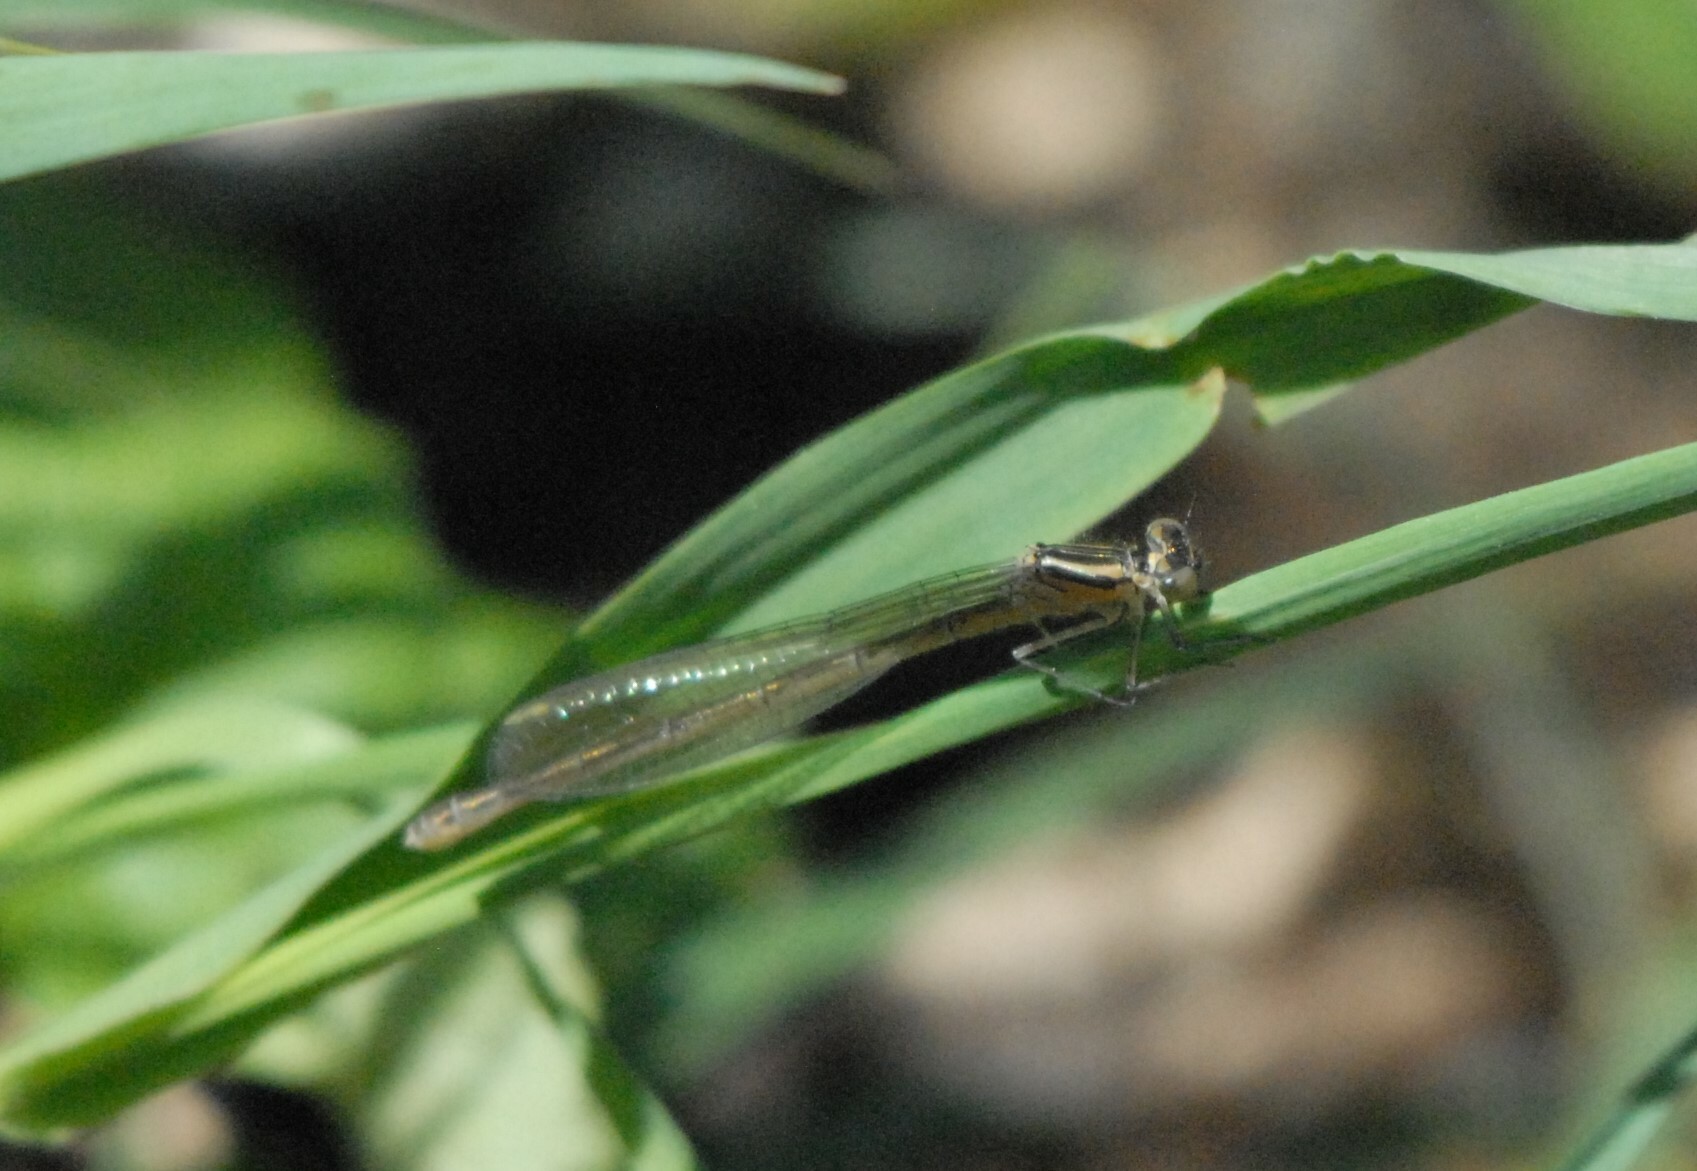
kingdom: Animalia
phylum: Arthropoda
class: Insecta
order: Odonata
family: Coenagrionidae
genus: Coenagrion
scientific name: Coenagrion hastulatum
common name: Spearhead bluet
